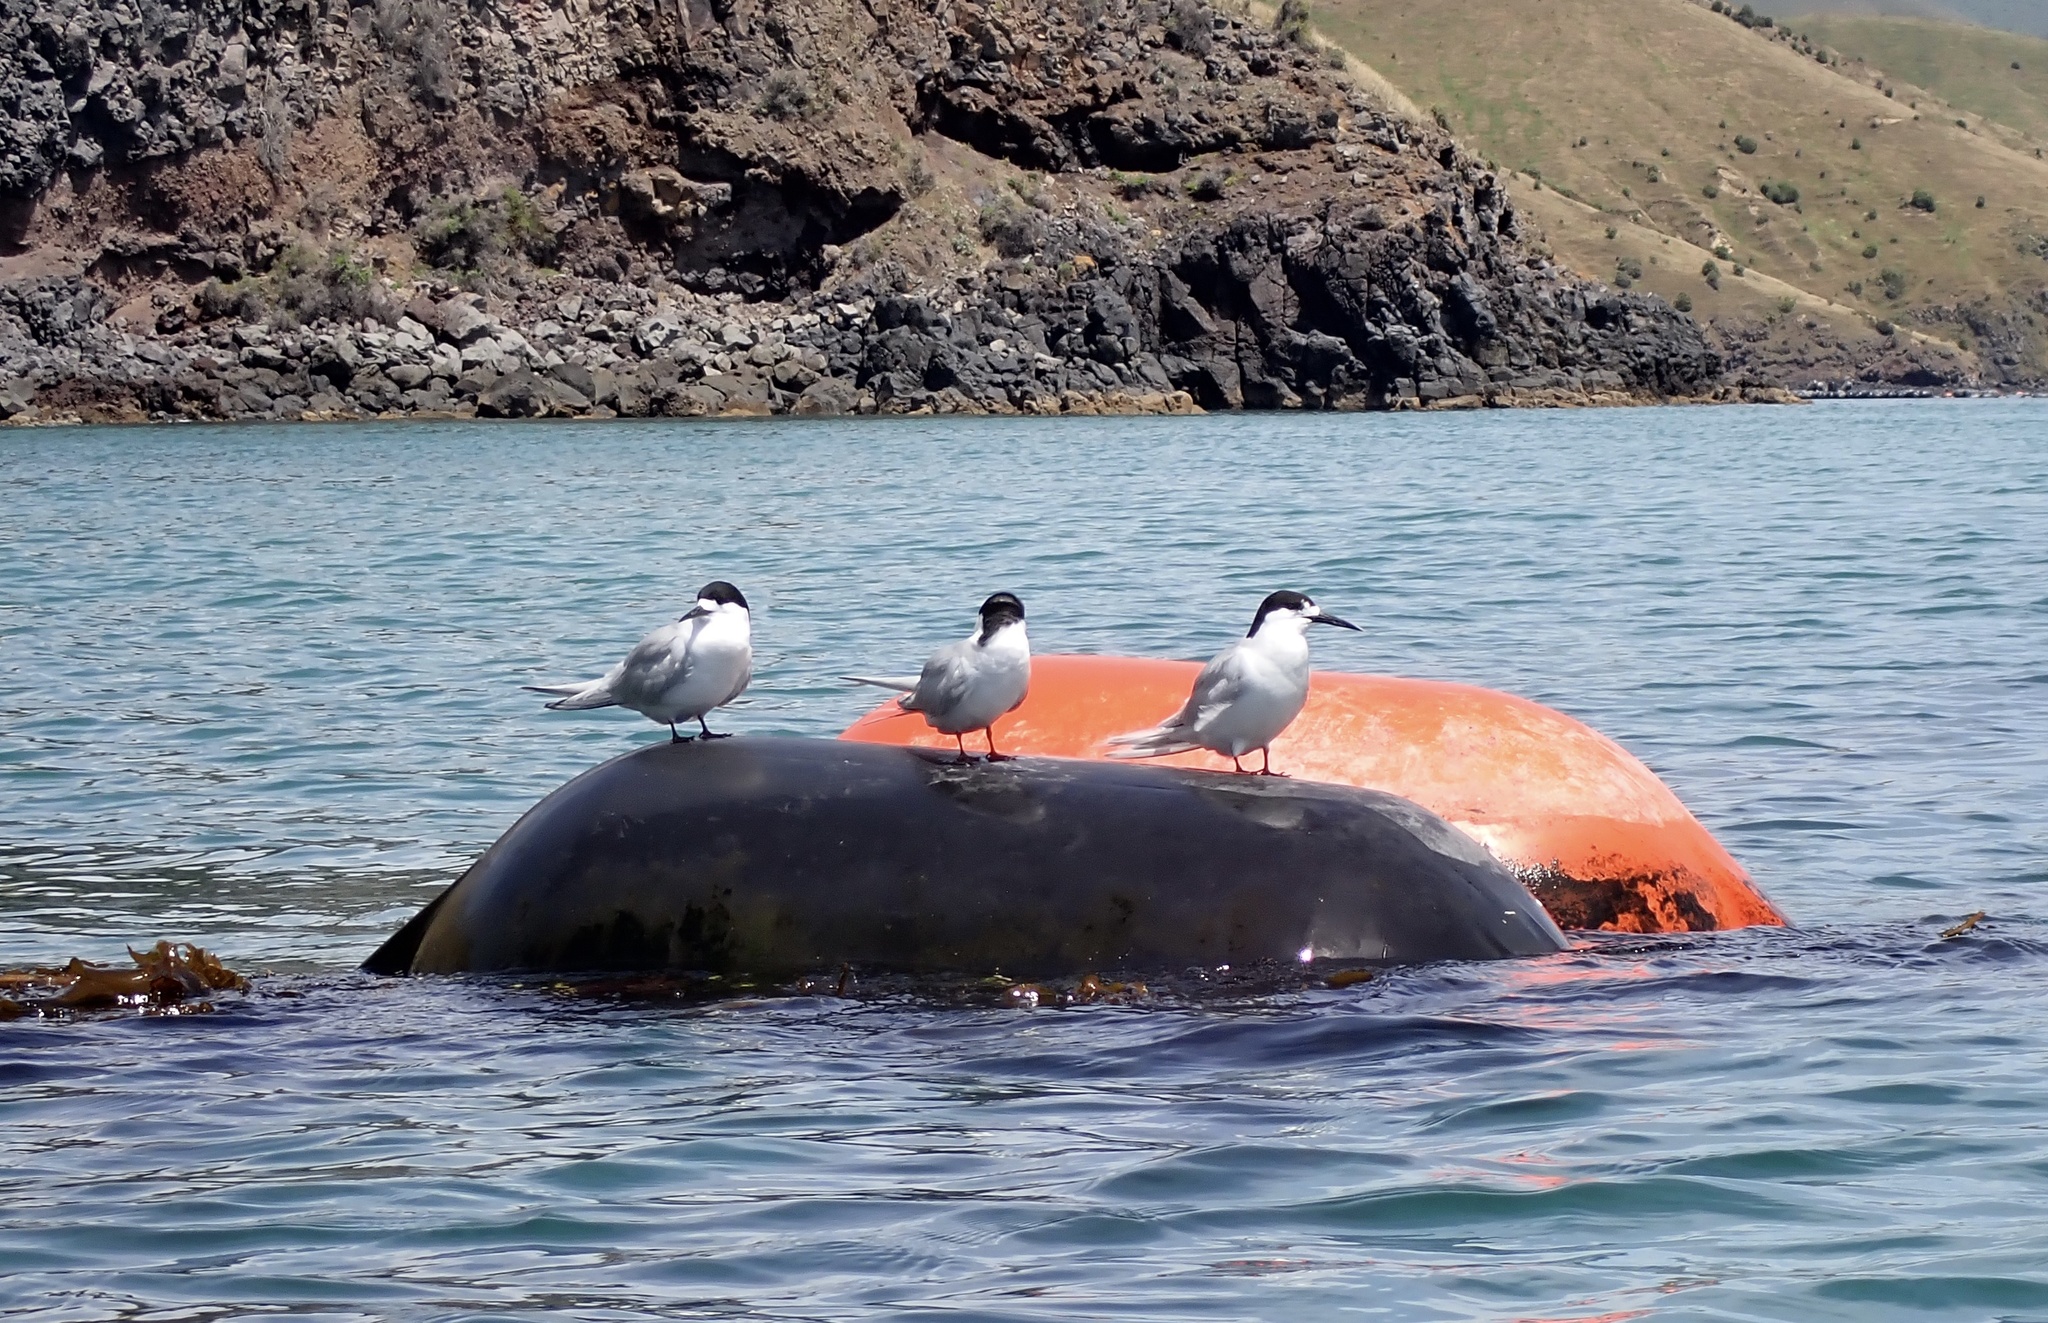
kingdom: Animalia
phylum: Chordata
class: Aves
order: Charadriiformes
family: Laridae
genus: Sterna
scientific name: Sterna striata
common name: White-fronted tern
